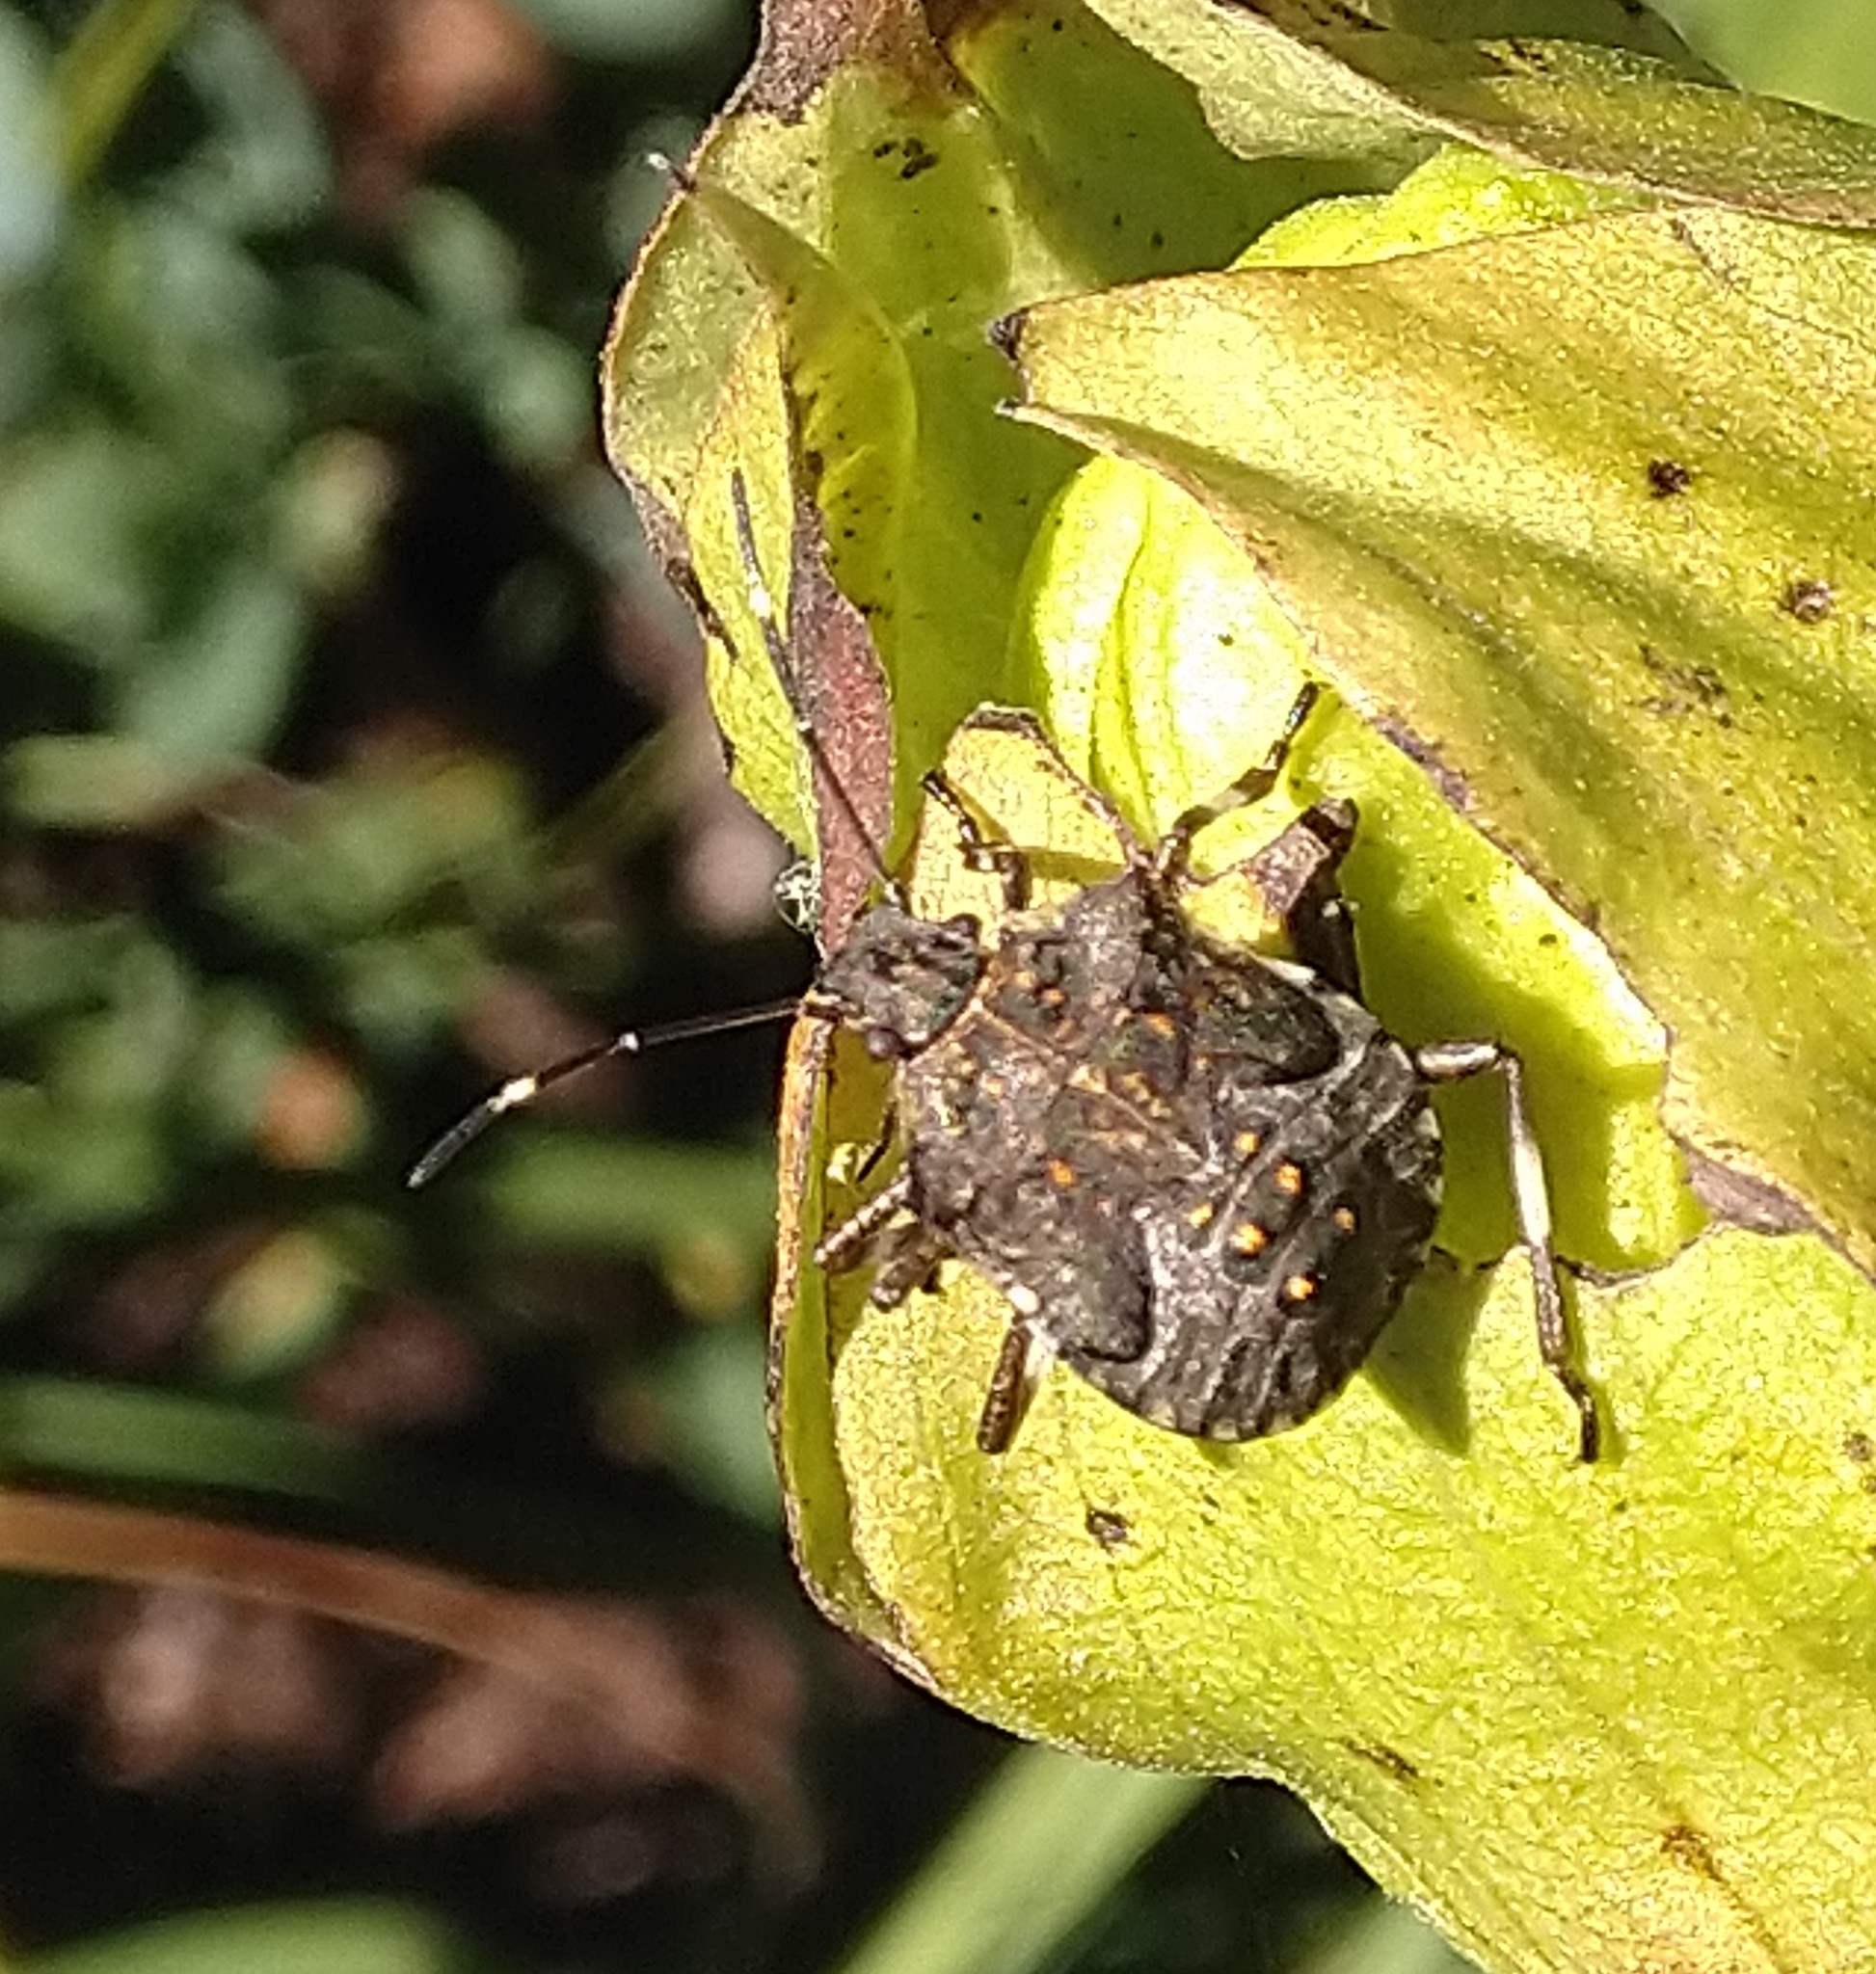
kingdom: Animalia
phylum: Arthropoda
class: Insecta
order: Hemiptera
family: Pentatomidae
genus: Halyomorpha
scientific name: Halyomorpha halys
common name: Brown marmorated stink bug
